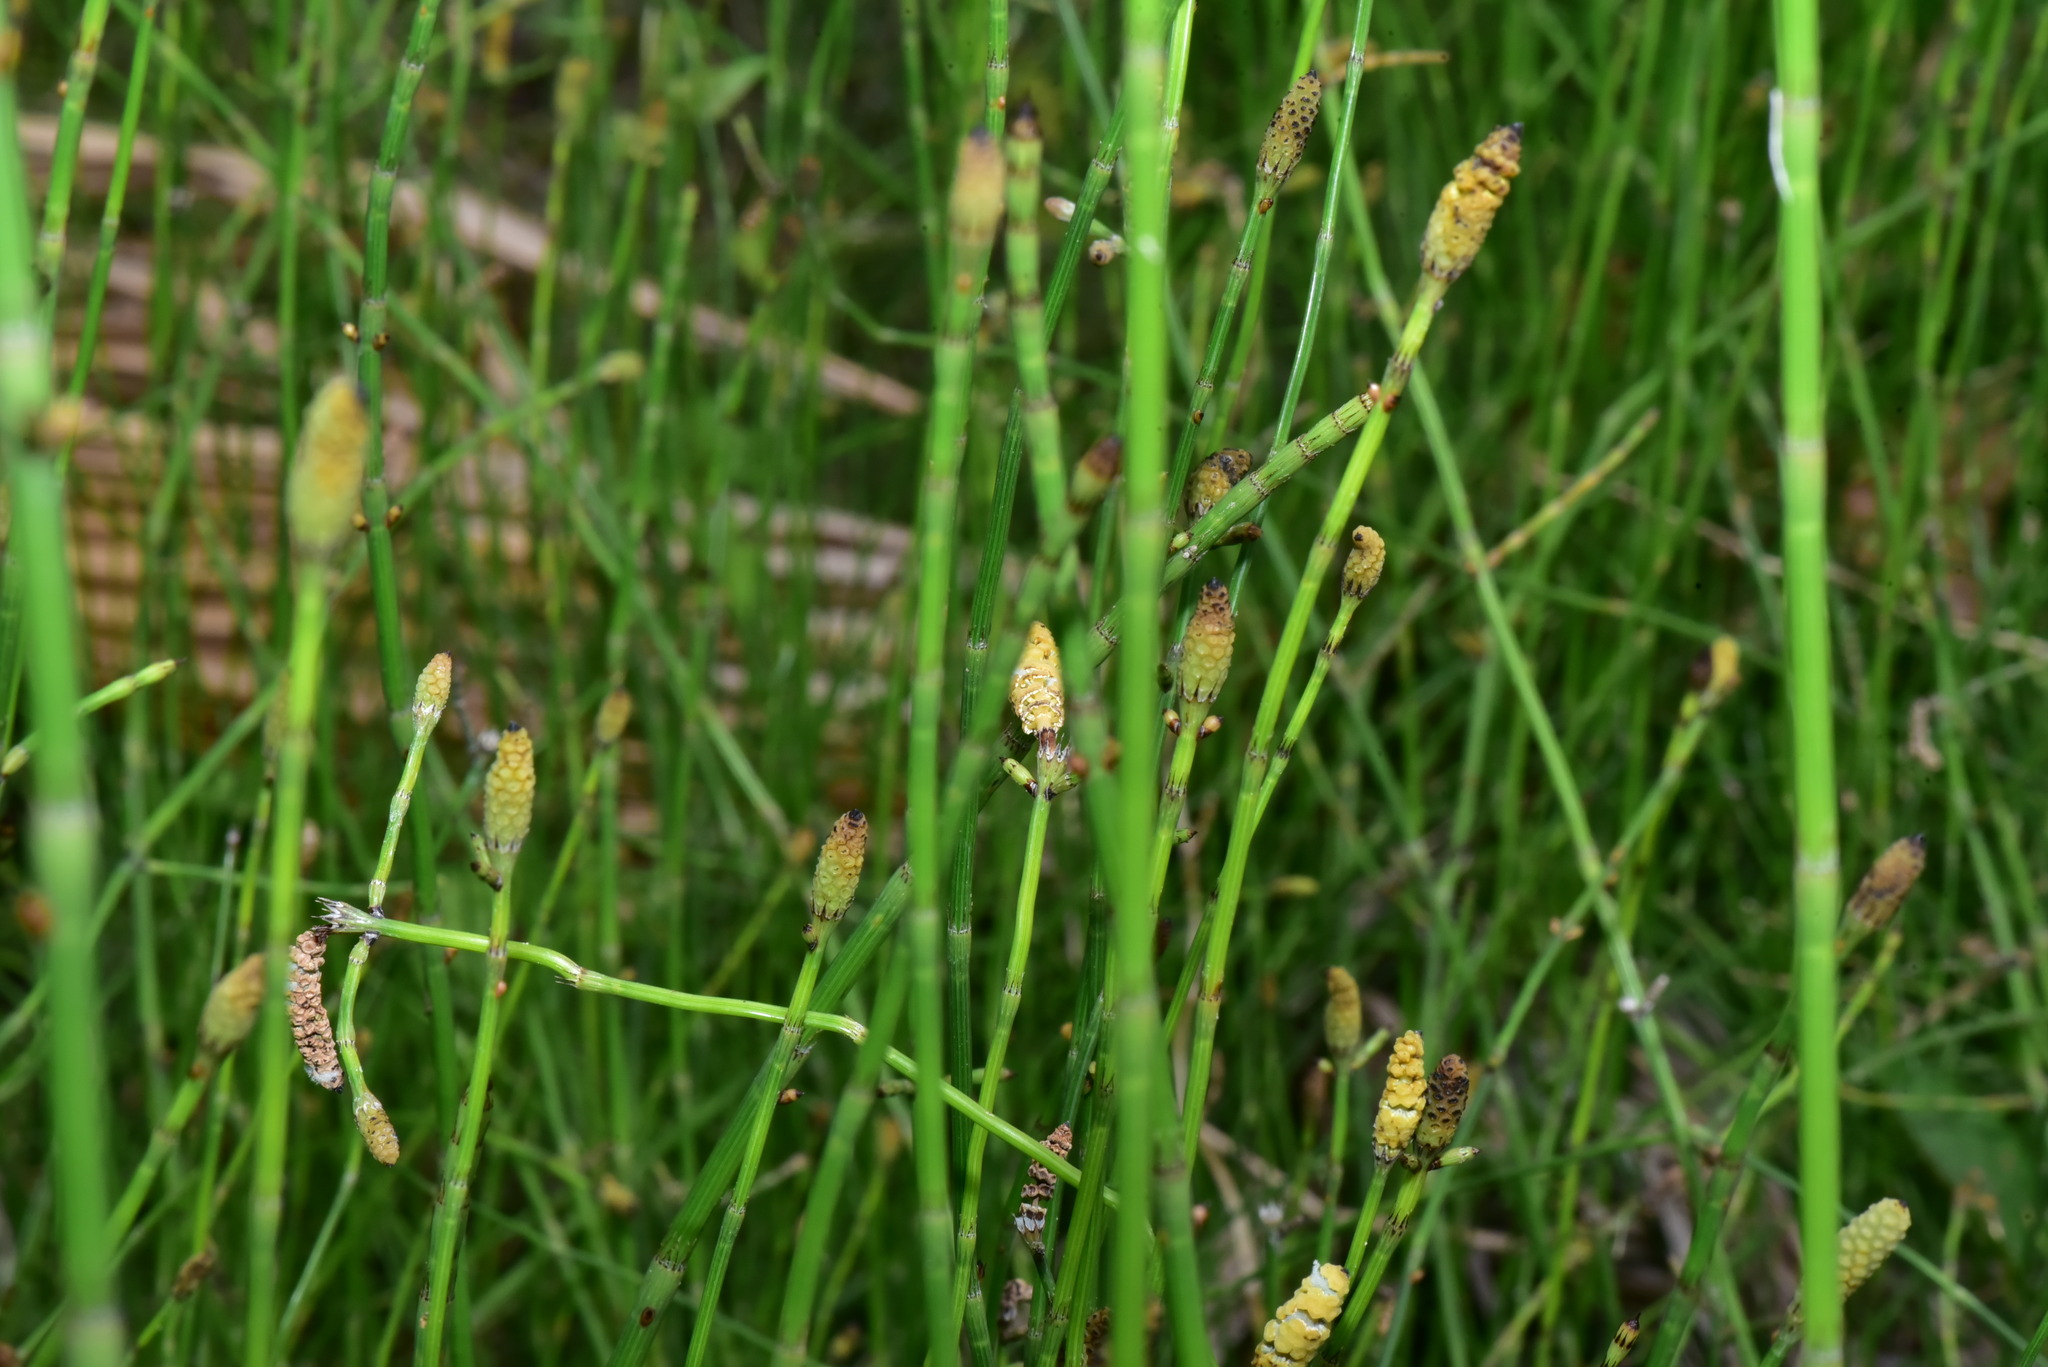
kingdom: Plantae
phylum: Tracheophyta
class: Polypodiopsida
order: Equisetales
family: Equisetaceae
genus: Equisetum
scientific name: Equisetum ramosissimum
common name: Branched horsetail
